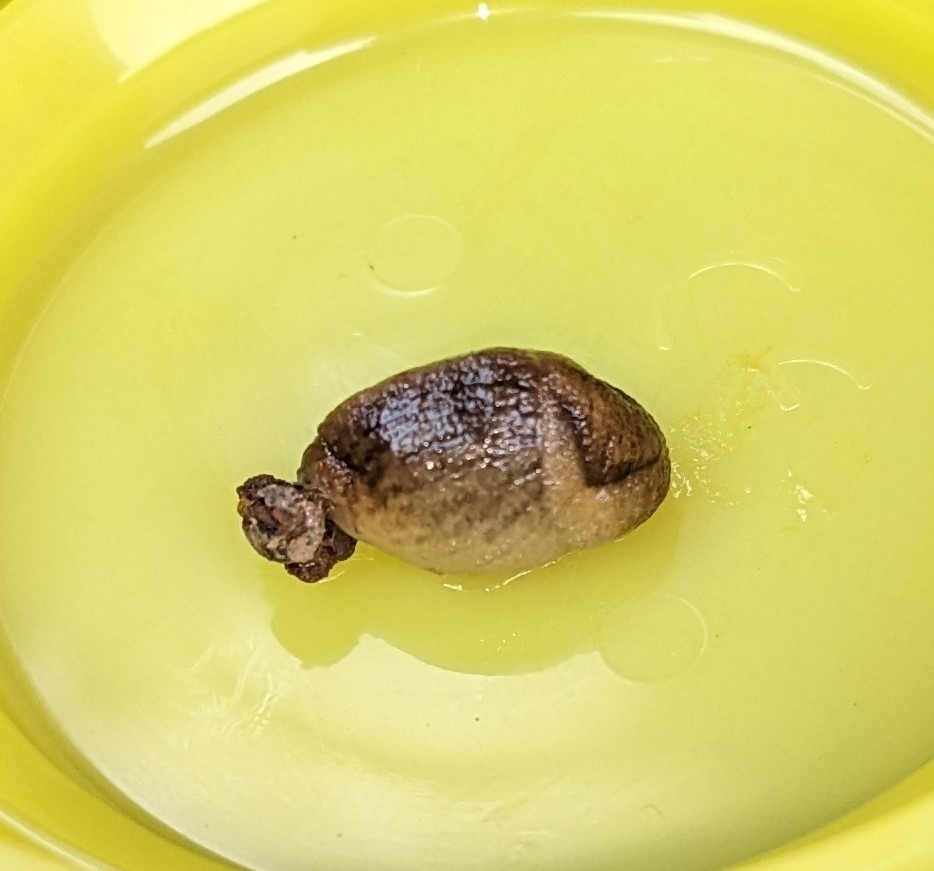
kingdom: Animalia
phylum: Mollusca
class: Gastropoda
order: Stylommatophora
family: Milacidae
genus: Milax
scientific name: Milax gagates
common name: Greenhouse slug
